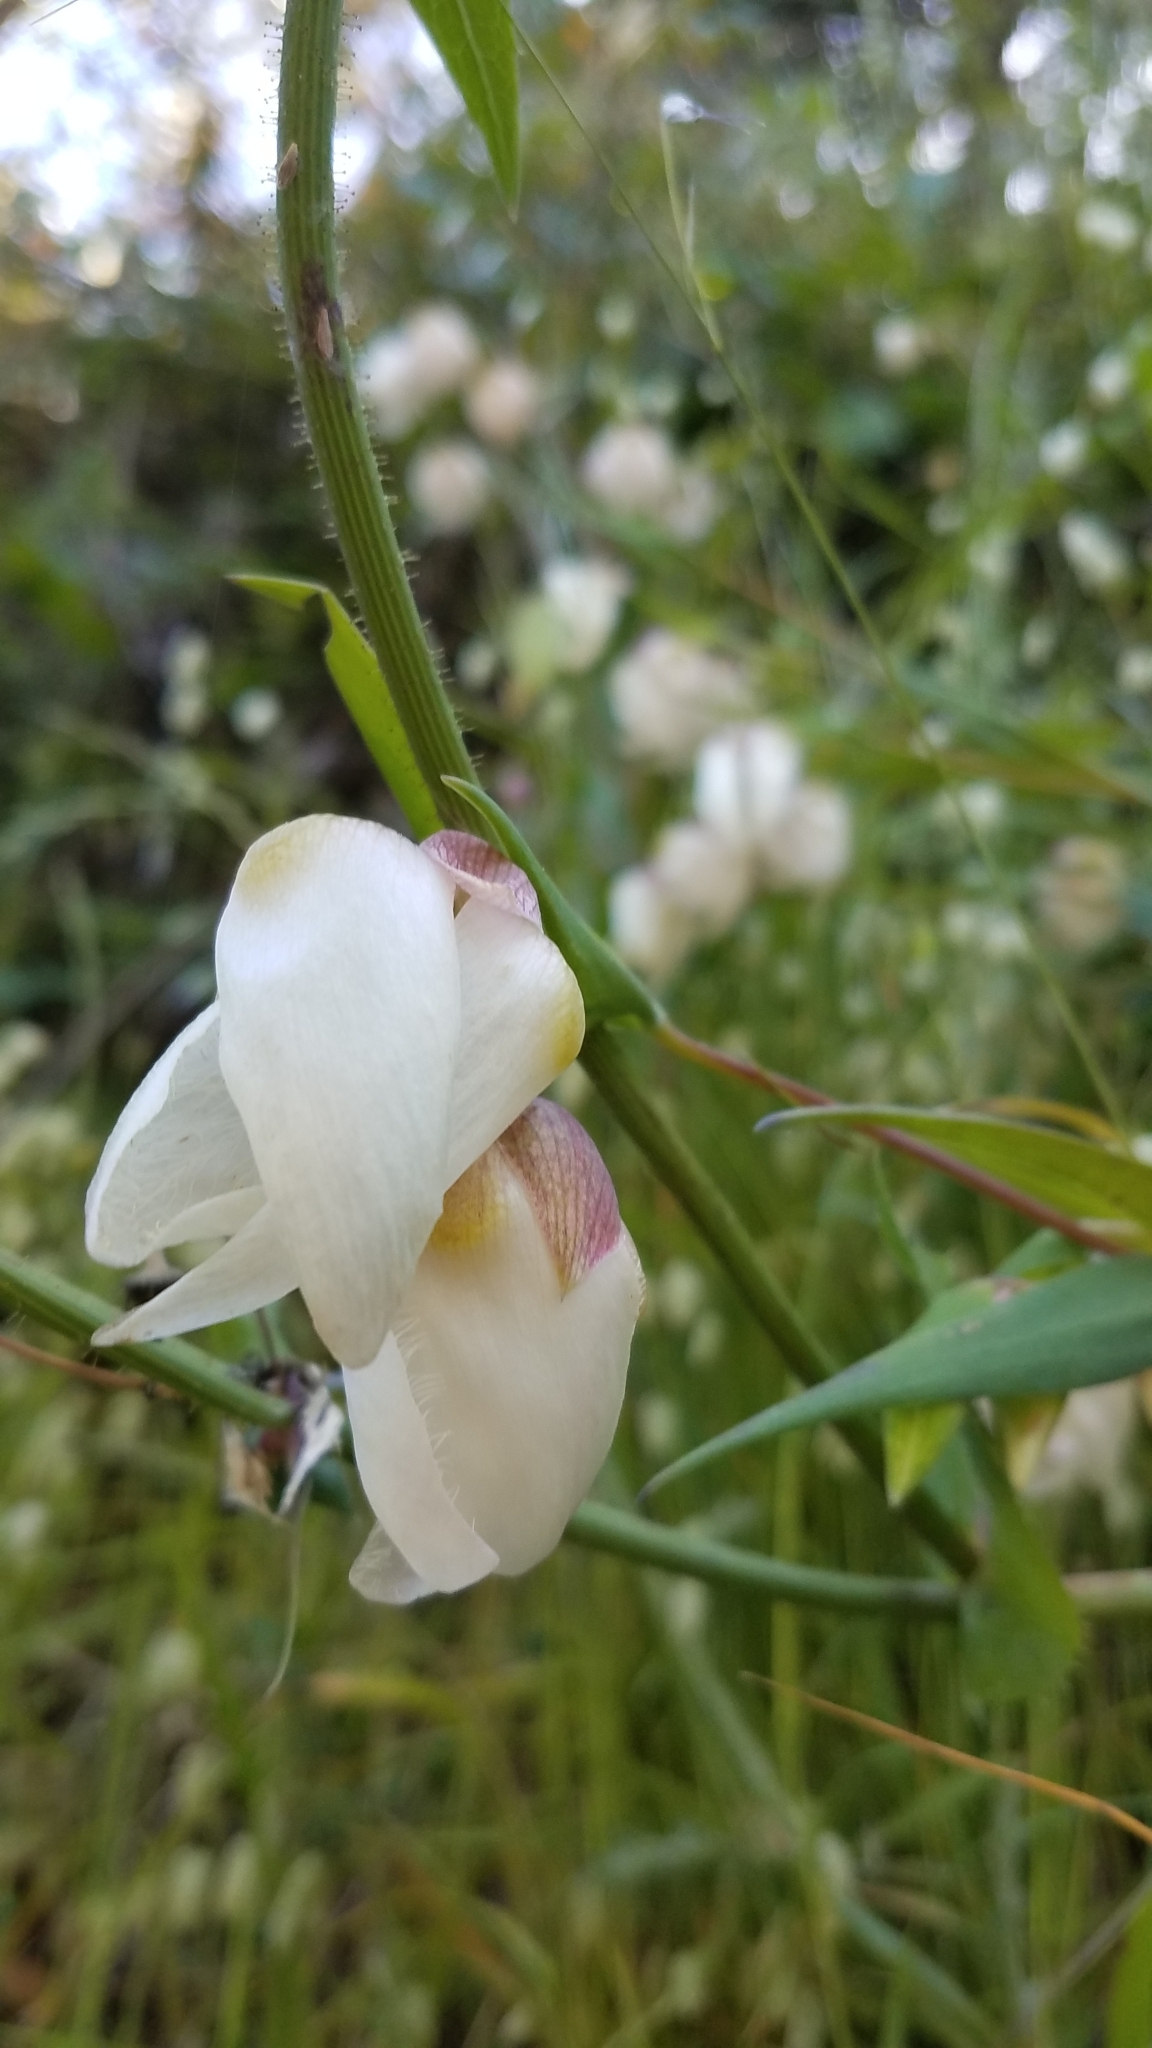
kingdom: Plantae
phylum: Tracheophyta
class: Liliopsida
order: Liliales
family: Liliaceae
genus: Calochortus
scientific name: Calochortus albus
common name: Fairy-lantern
